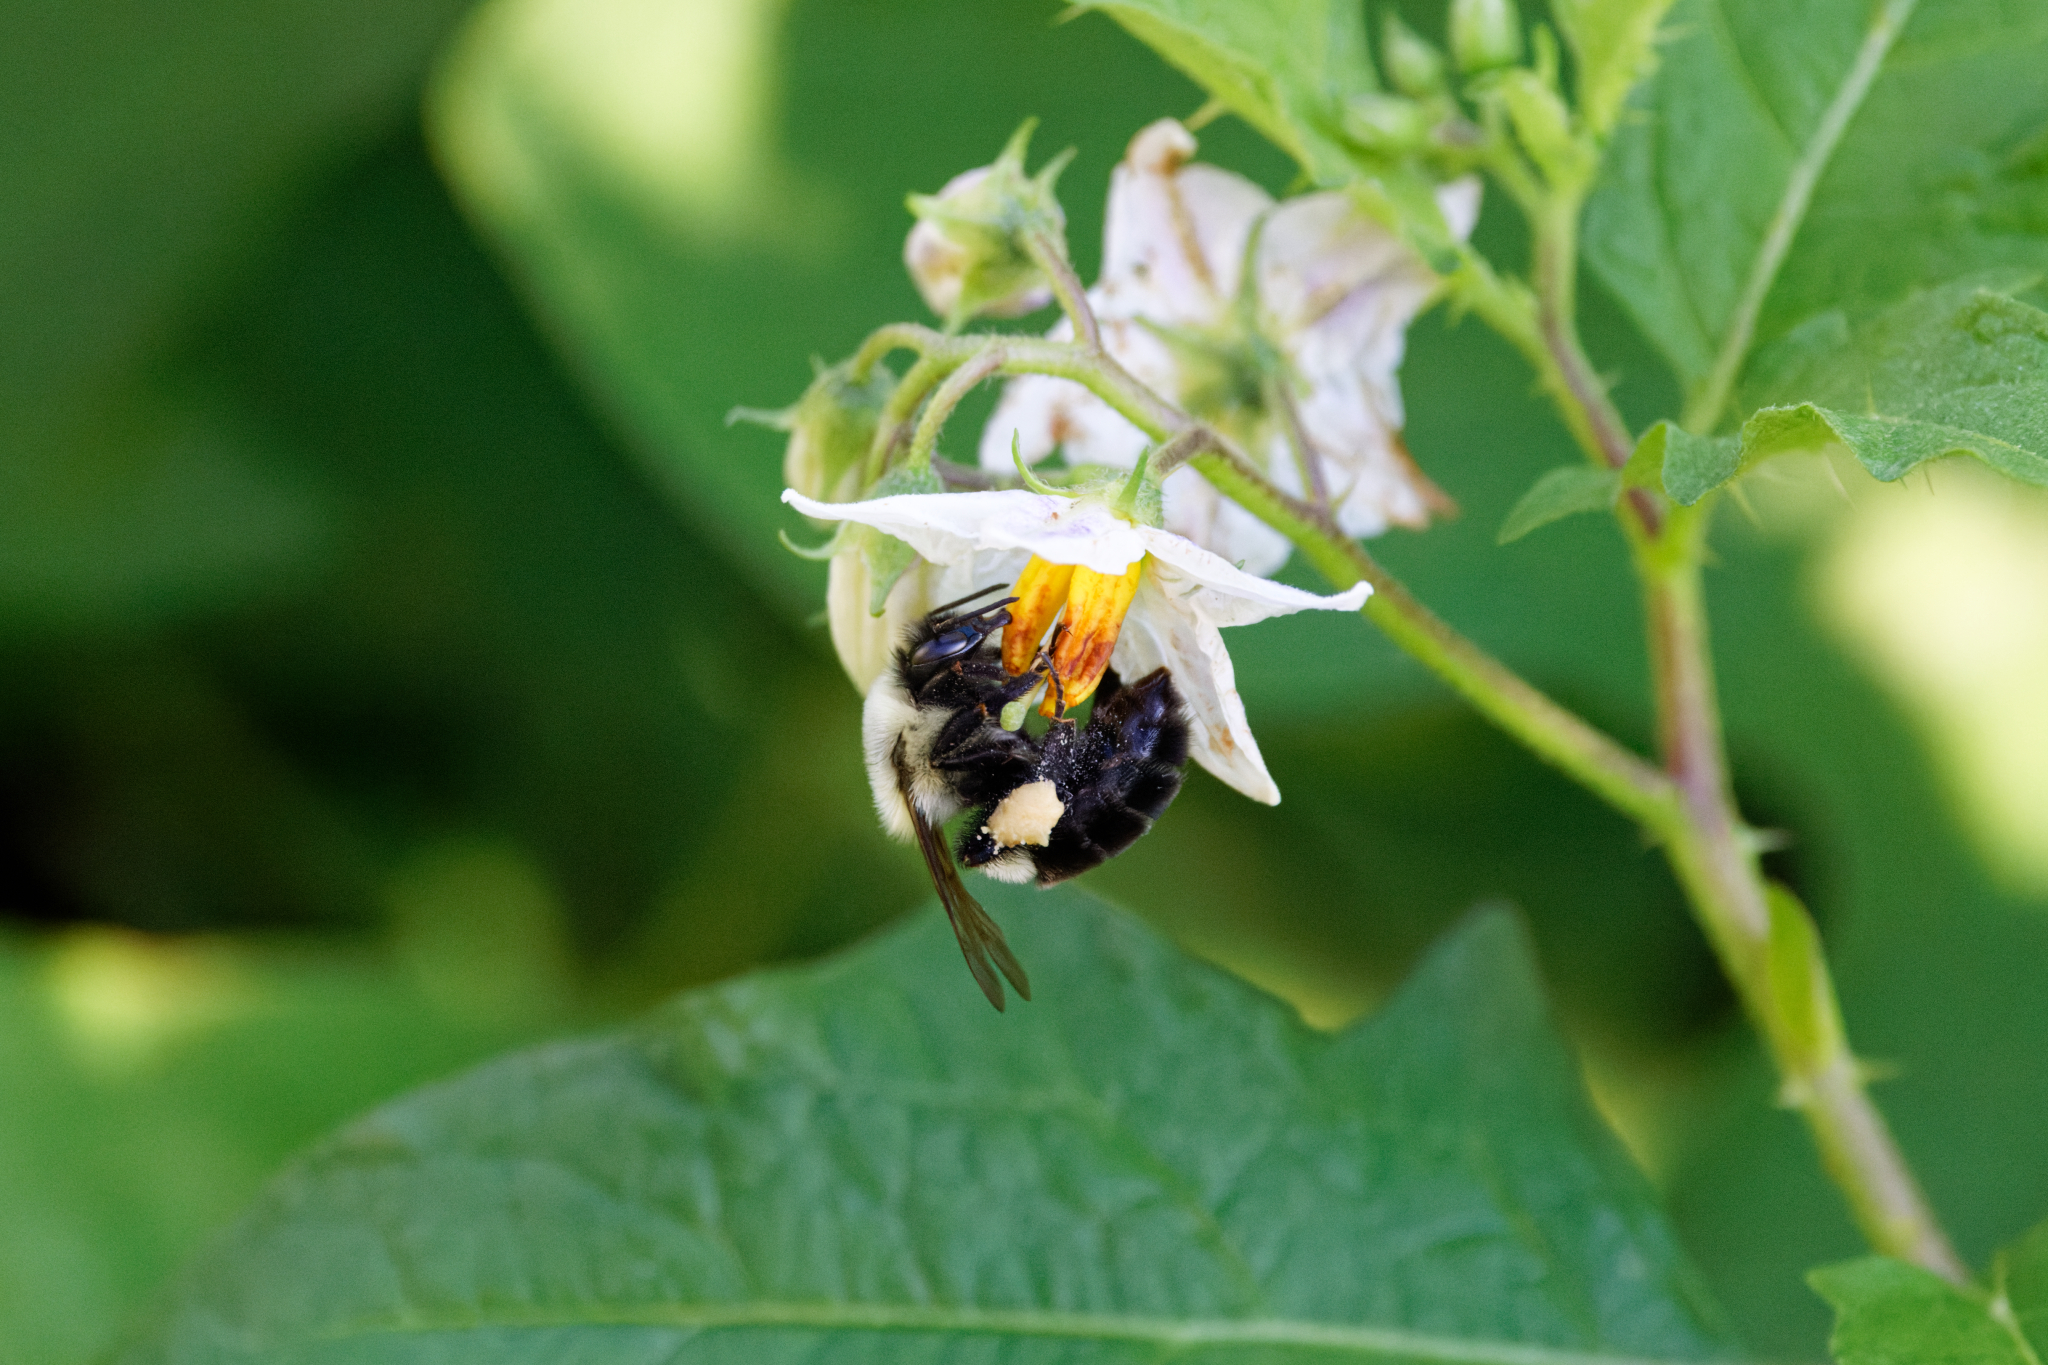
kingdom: Animalia
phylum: Arthropoda
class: Insecta
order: Hymenoptera
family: Apidae
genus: Bombus
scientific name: Bombus impatiens
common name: Common eastern bumble bee
